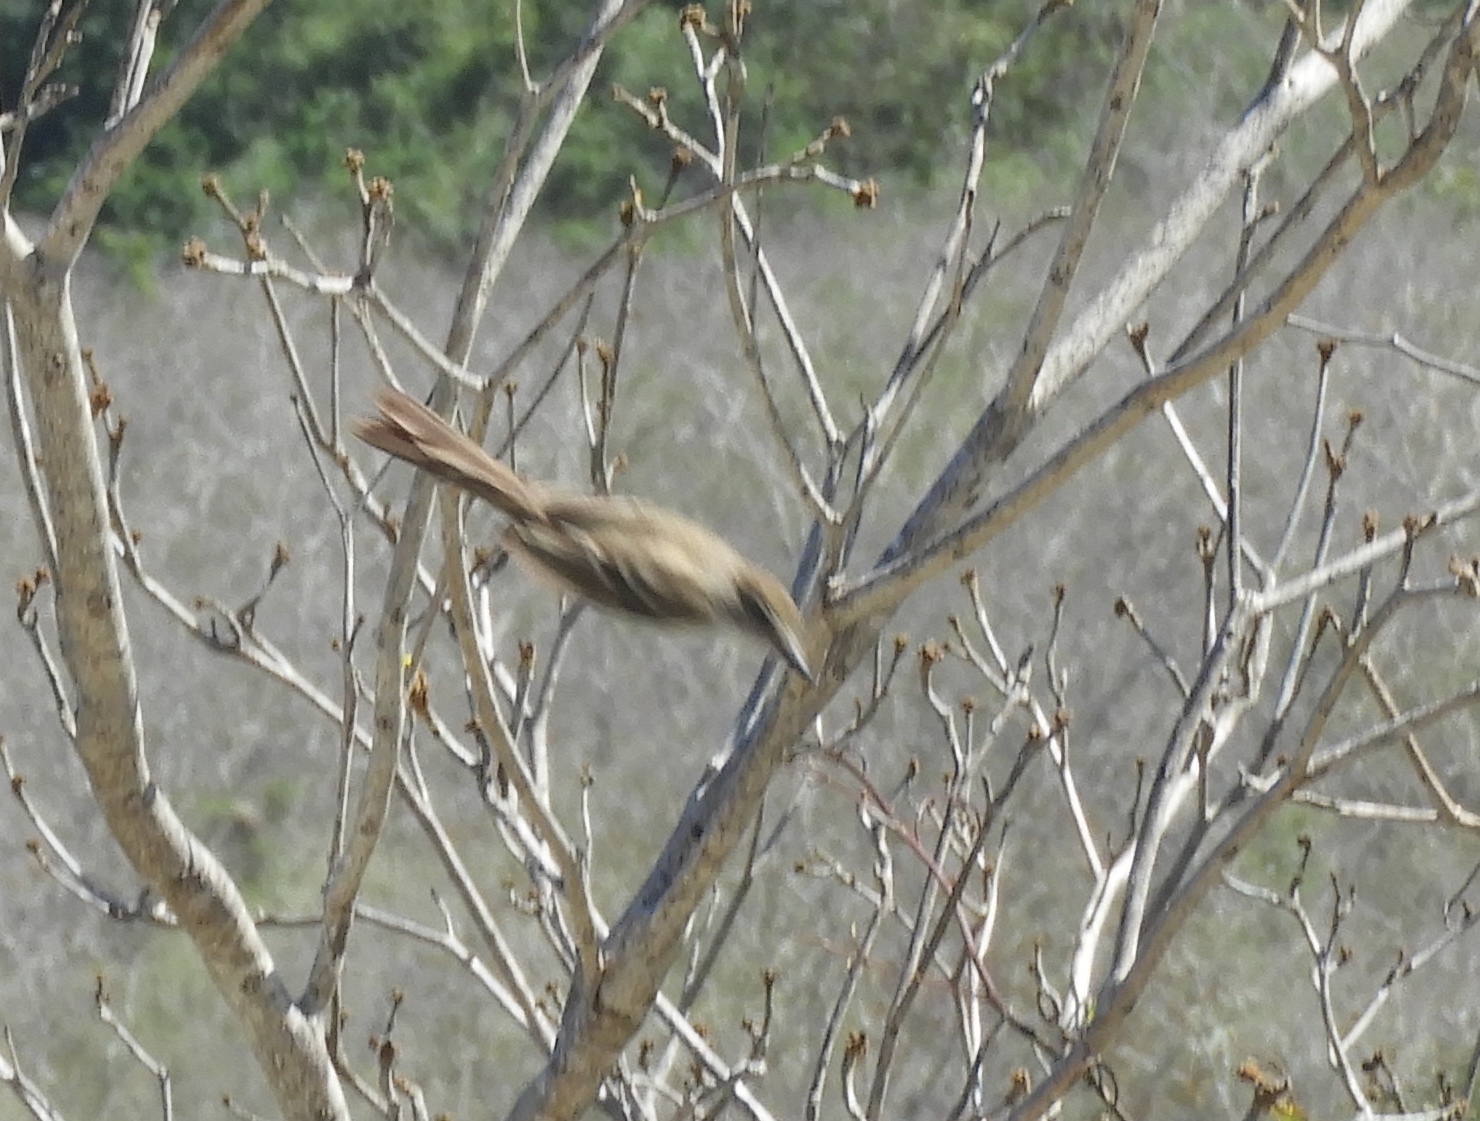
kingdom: Animalia
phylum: Chordata
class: Aves
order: Passeriformes
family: Tyrannidae
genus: Myiarchus
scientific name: Myiarchus
